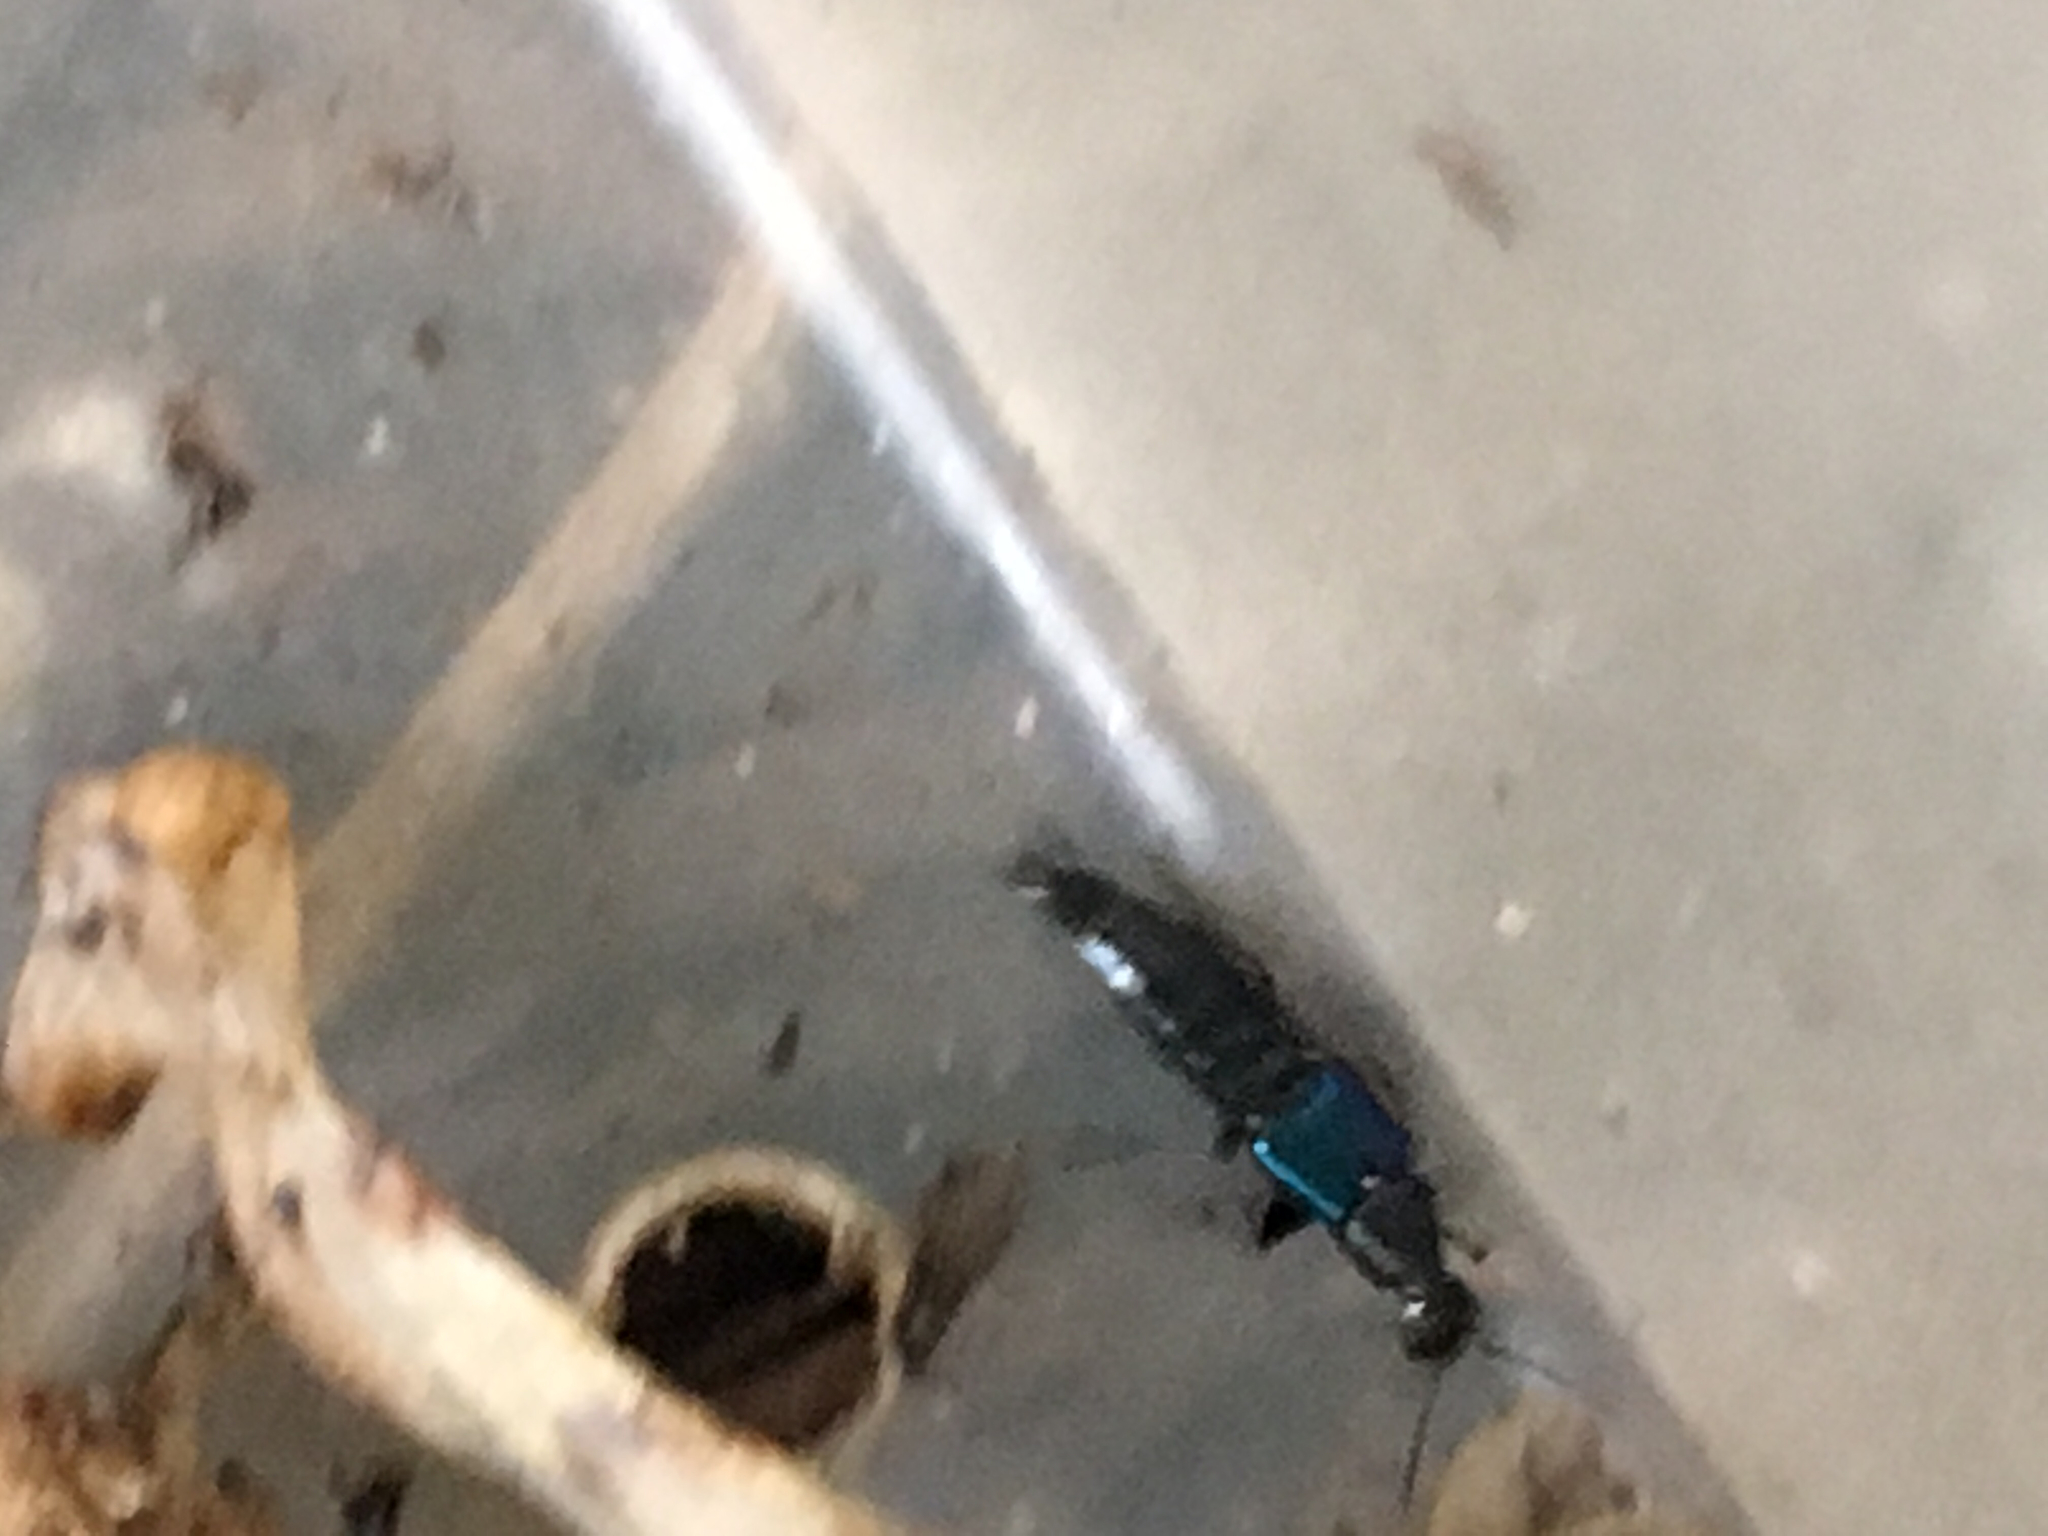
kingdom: Animalia
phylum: Arthropoda
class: Insecta
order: Coleoptera
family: Staphylinidae
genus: Philonthus
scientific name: Philonthus caeruleipennis
